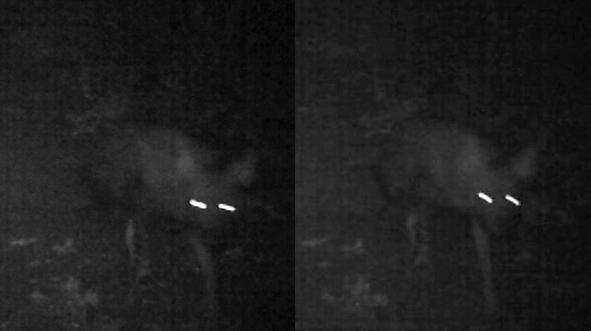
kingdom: Animalia
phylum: Chordata
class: Mammalia
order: Carnivora
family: Hyaenidae
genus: Hyaena
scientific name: Hyaena brunnea
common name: Brown hyena
